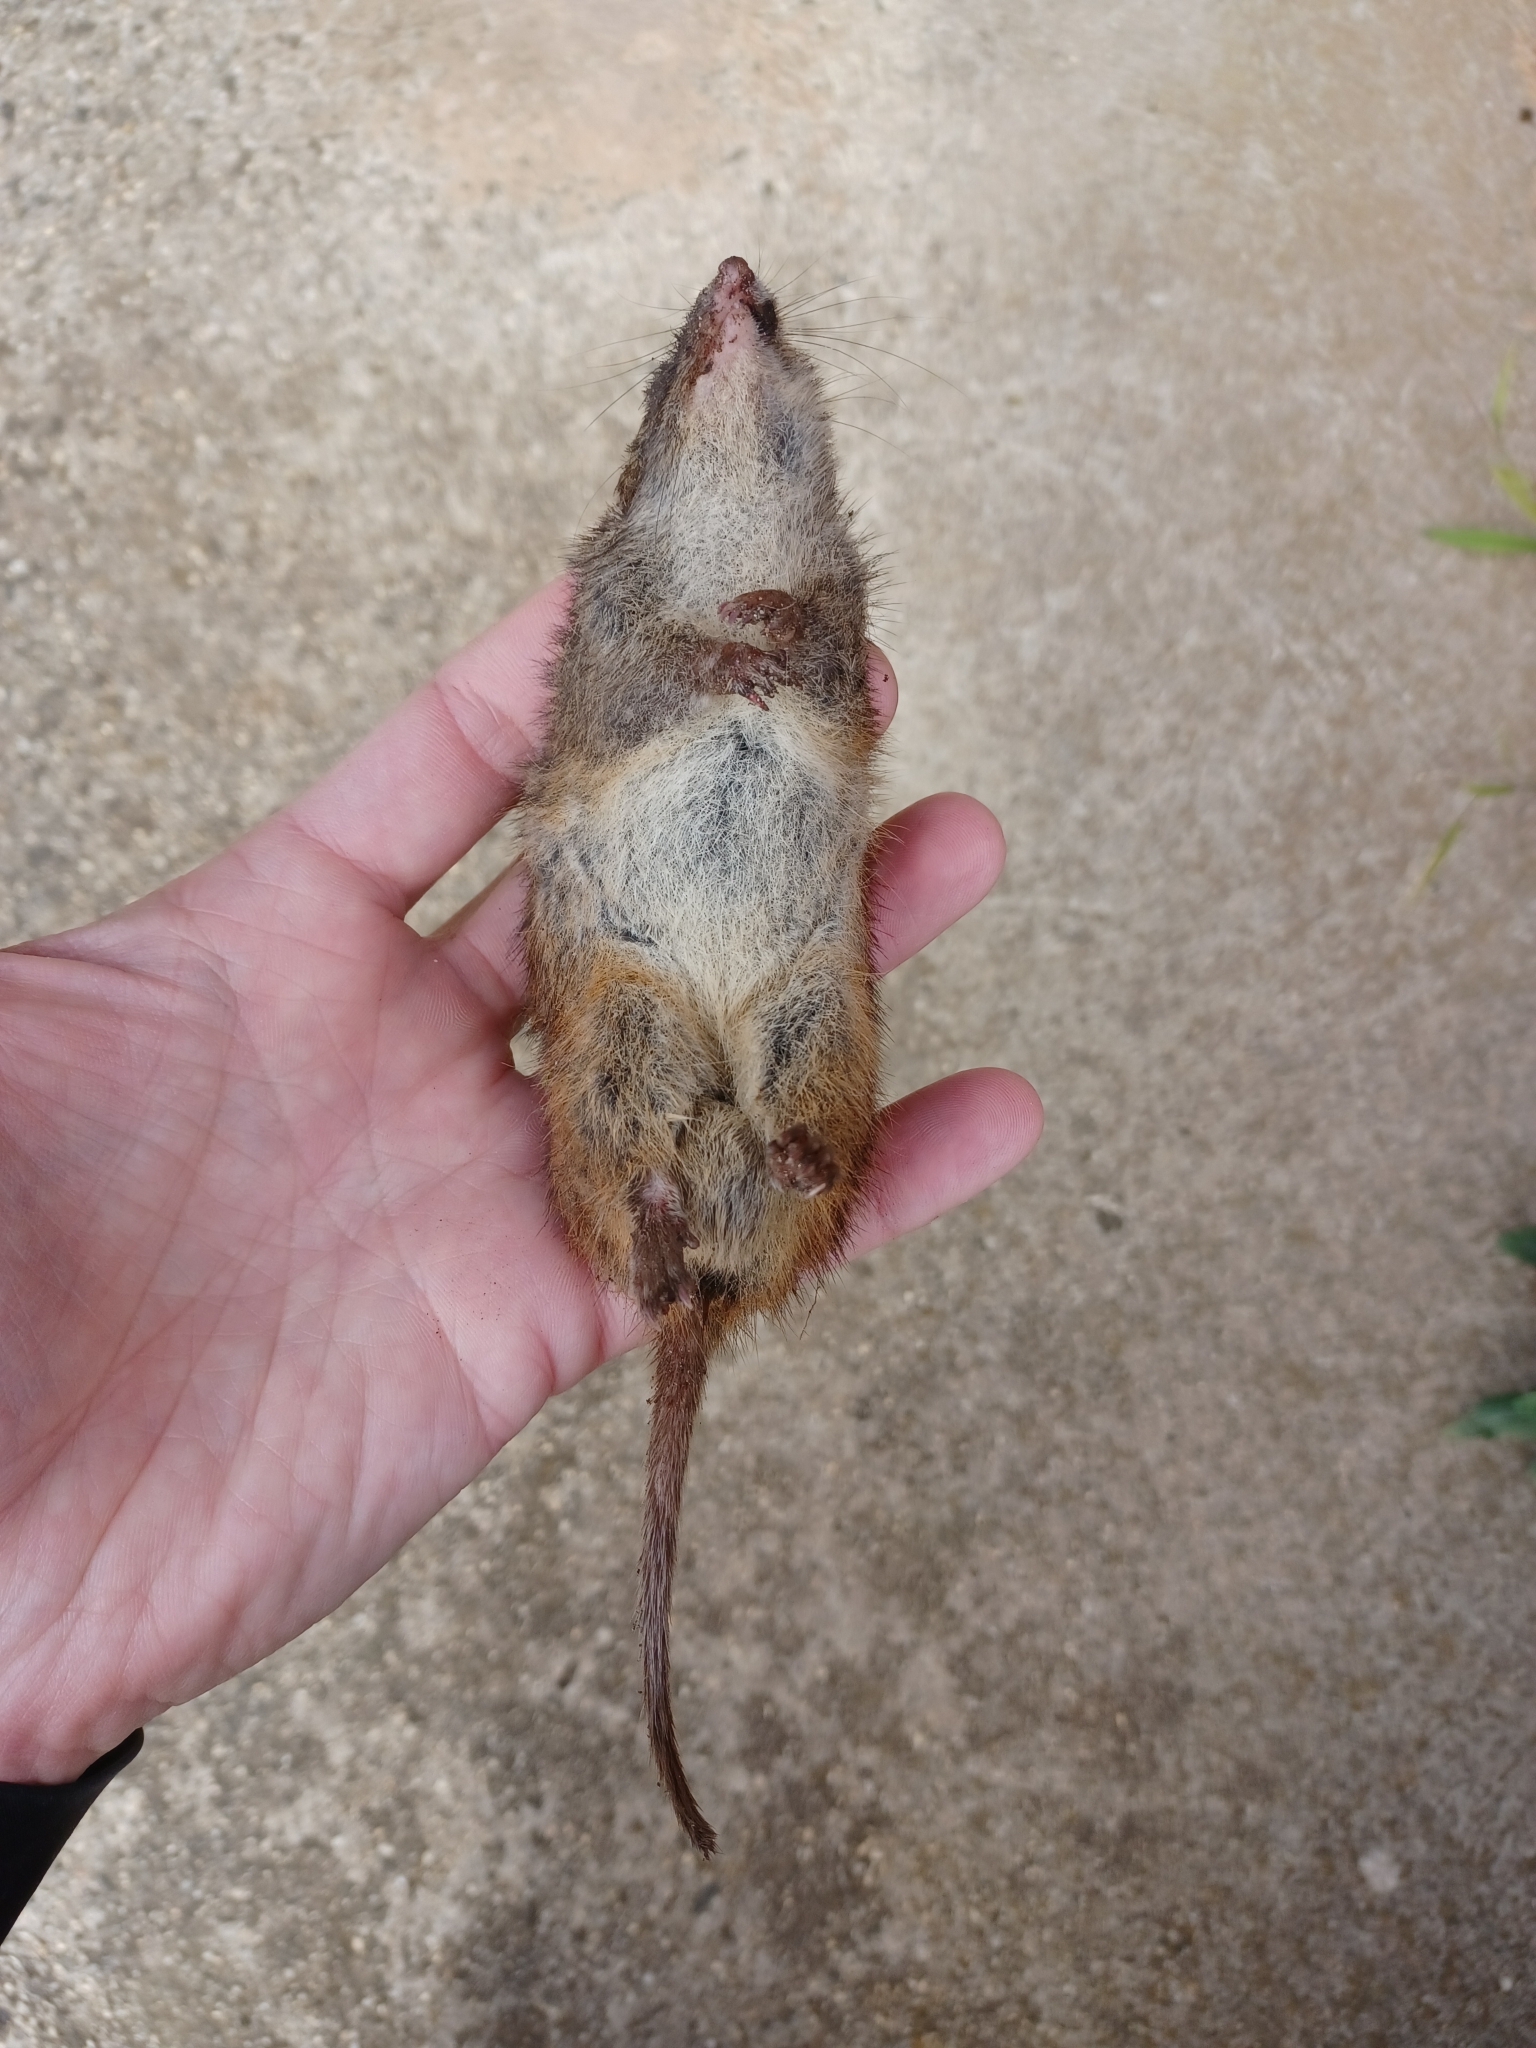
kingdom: Animalia
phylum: Chordata
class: Mammalia
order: Dasyuromorphia
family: Dasyuridae
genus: Antechinus
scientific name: Antechinus minimus
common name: Swamp antechinus
